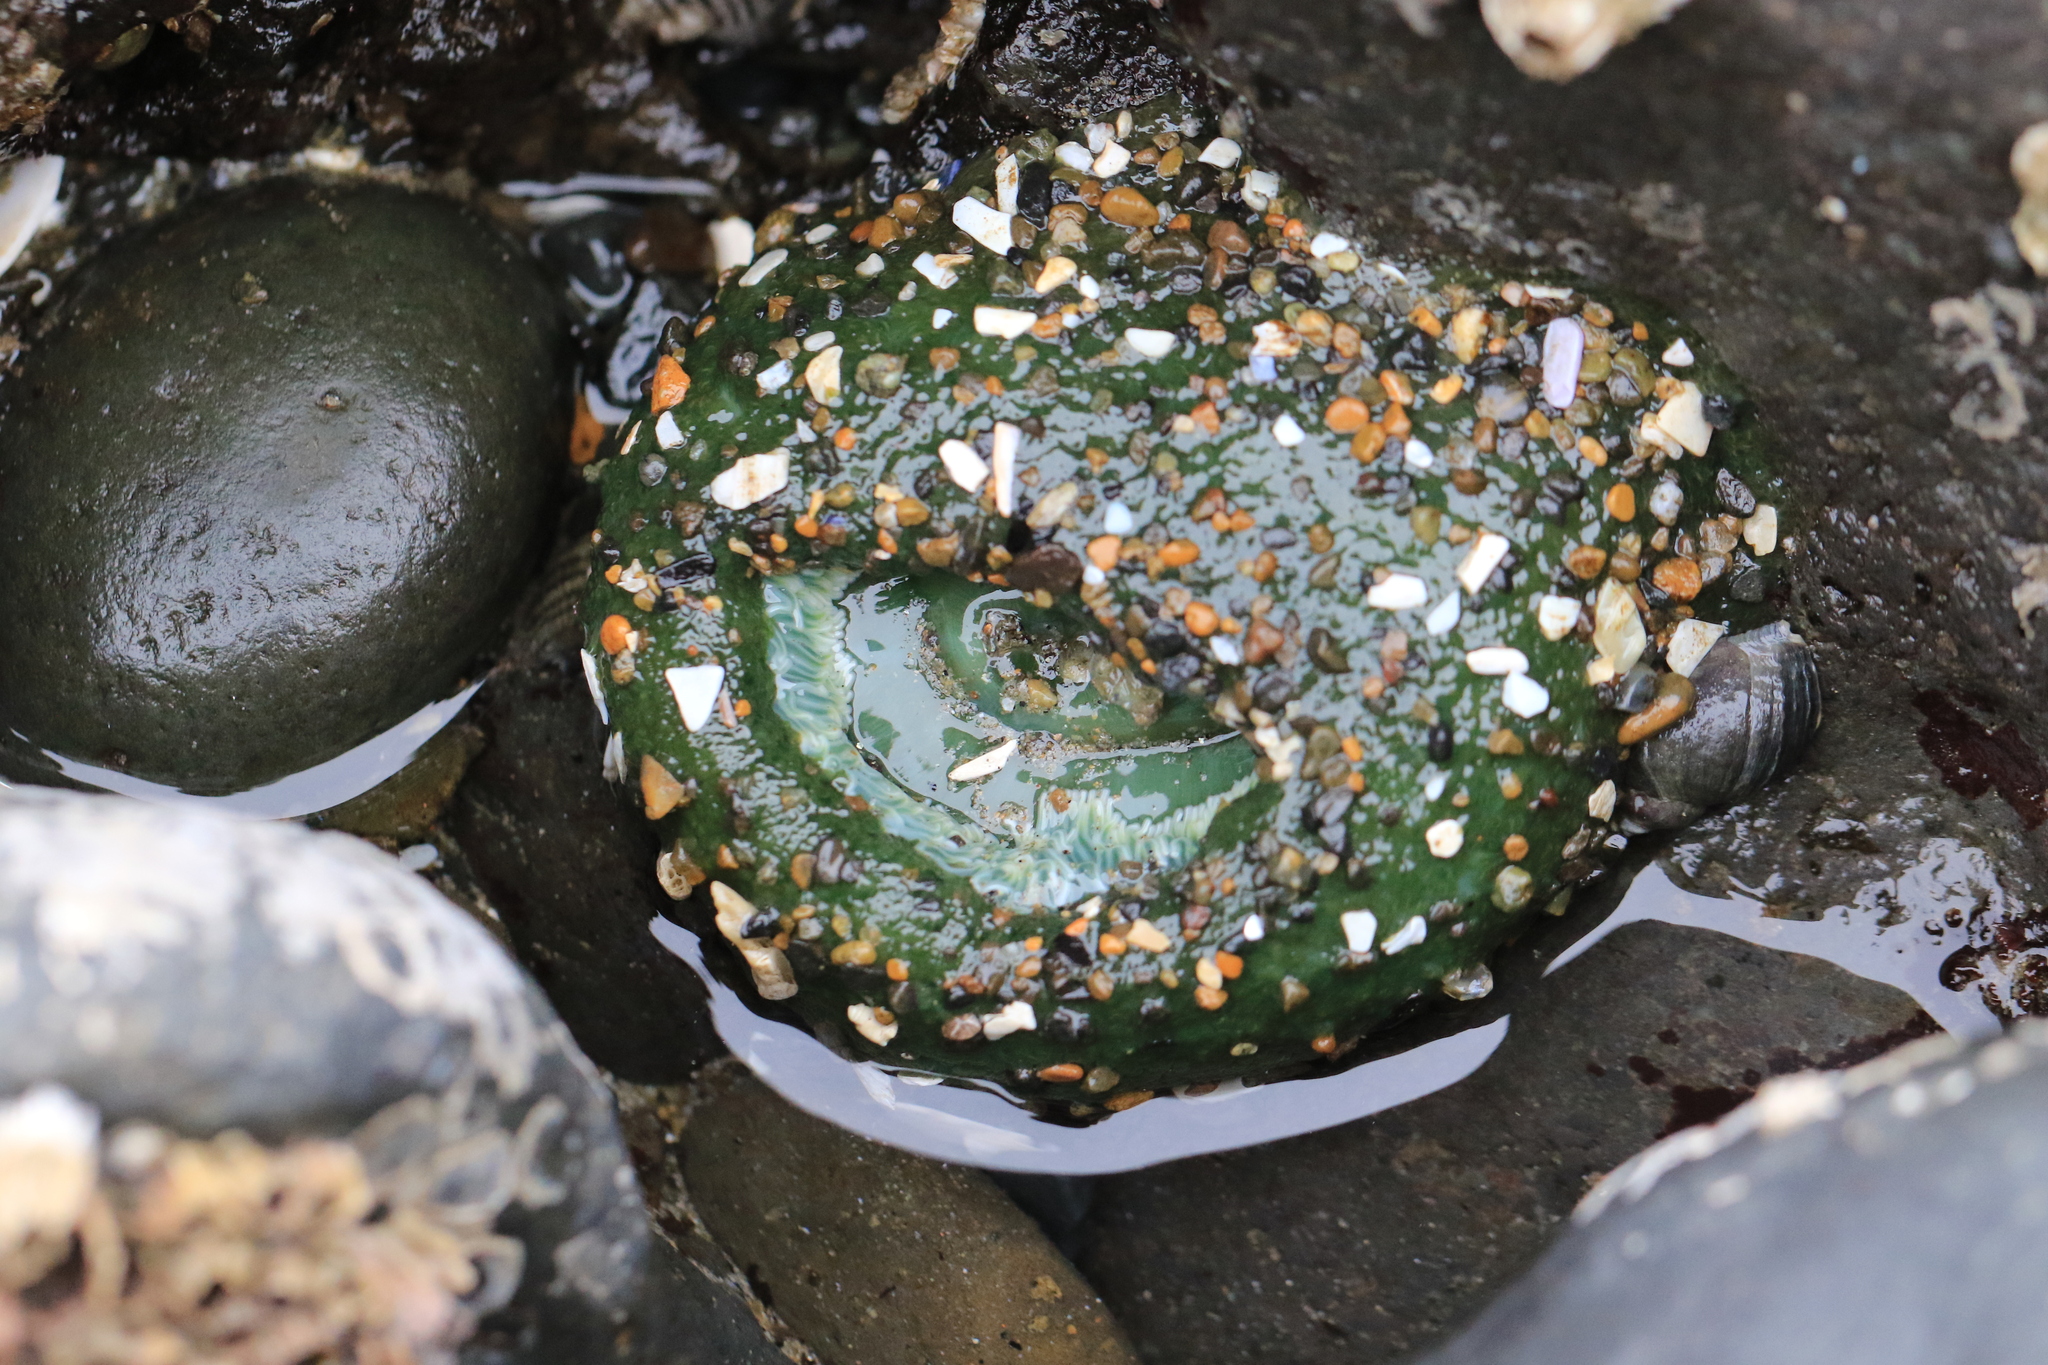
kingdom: Animalia
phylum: Cnidaria
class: Anthozoa
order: Actiniaria
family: Actiniidae
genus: Anthopleura
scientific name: Anthopleura xanthogrammica
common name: Giant green anemone
